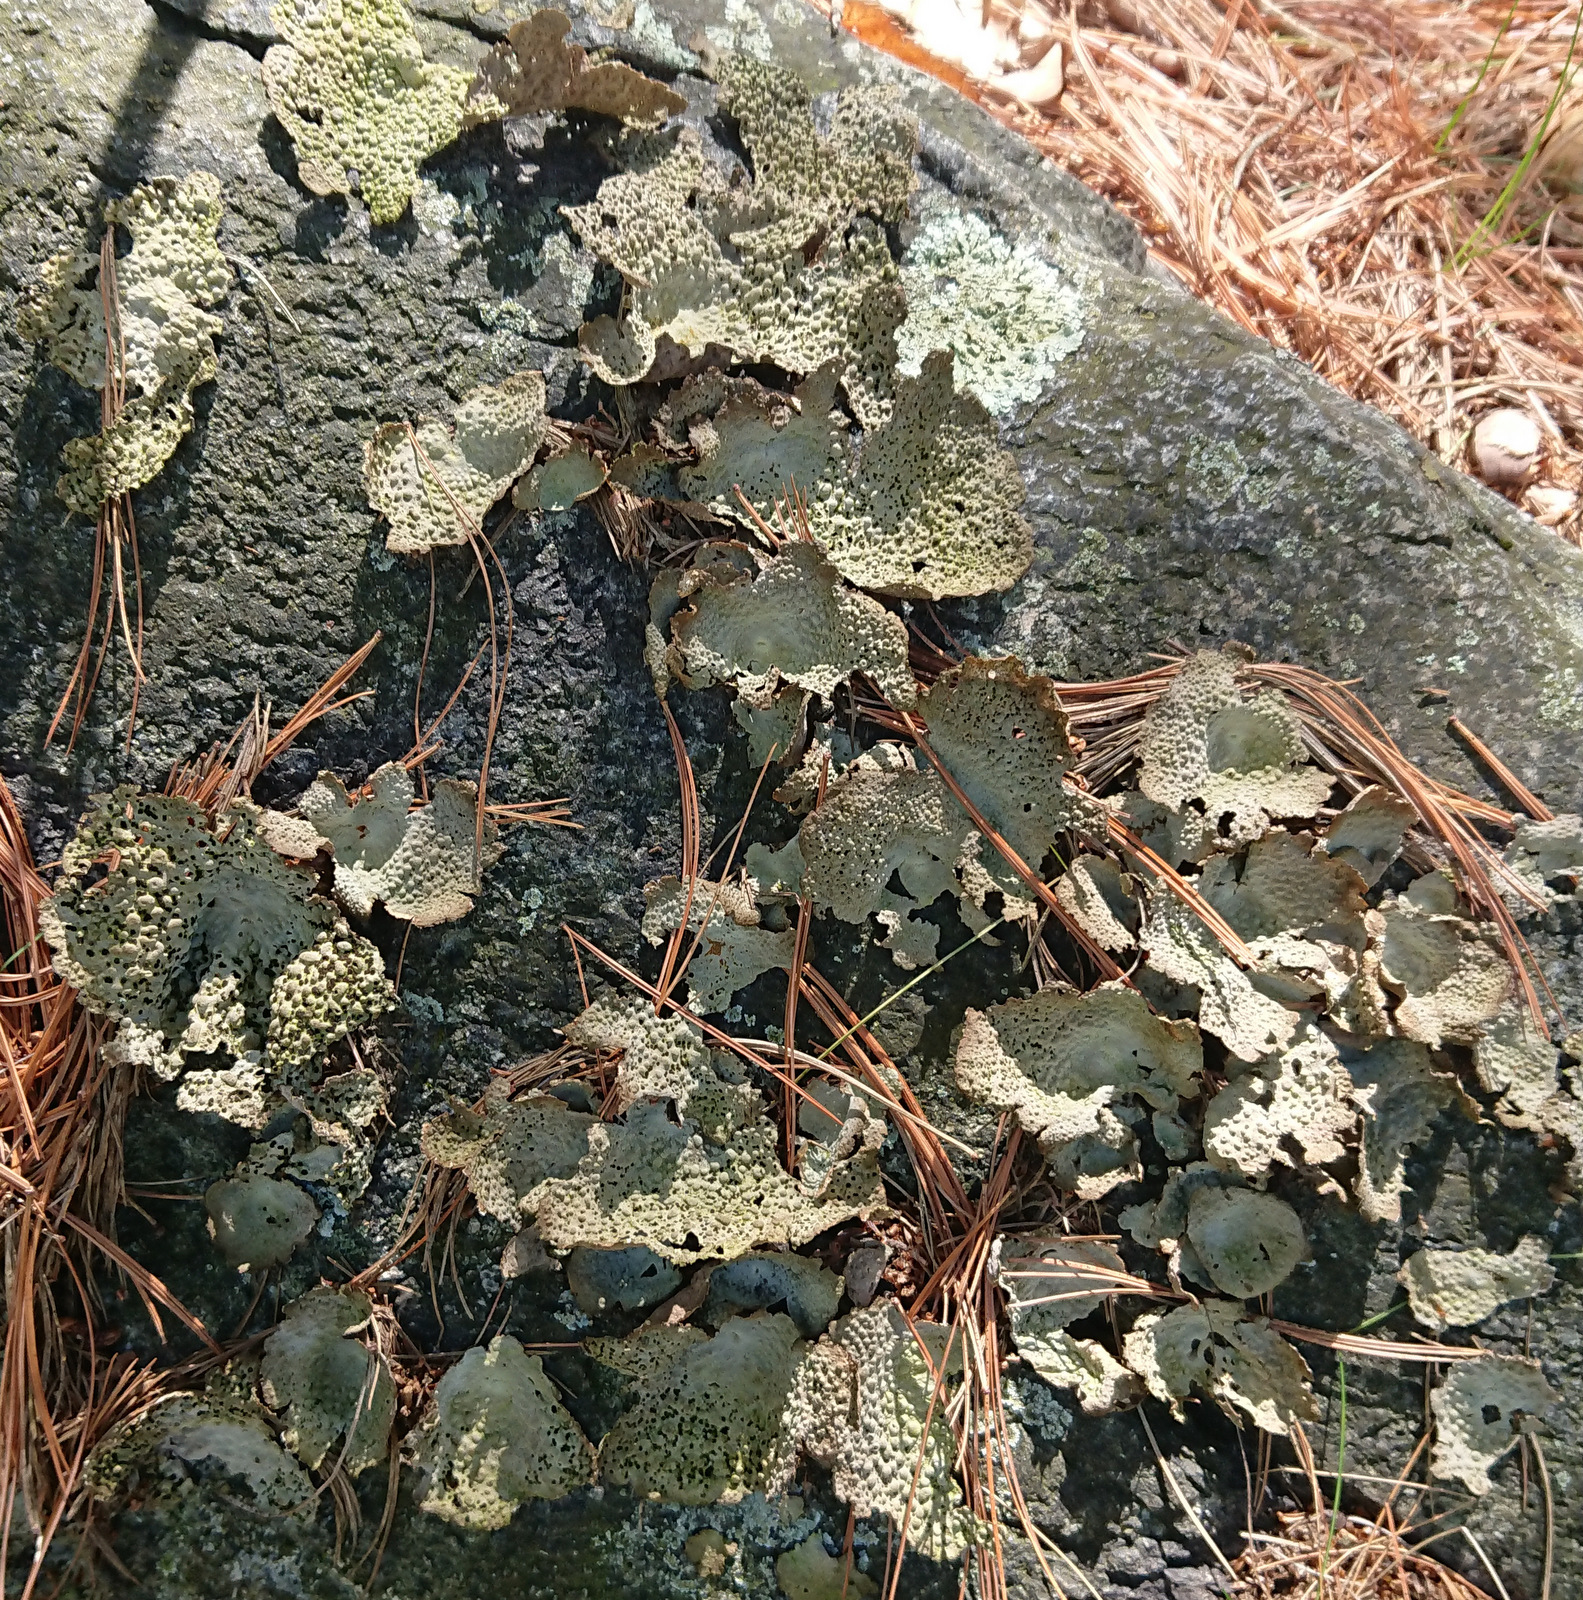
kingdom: Fungi
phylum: Ascomycota
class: Lecanoromycetes
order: Umbilicariales
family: Umbilicariaceae
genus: Lasallia
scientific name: Lasallia papulosa
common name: Common toadskin lichen
